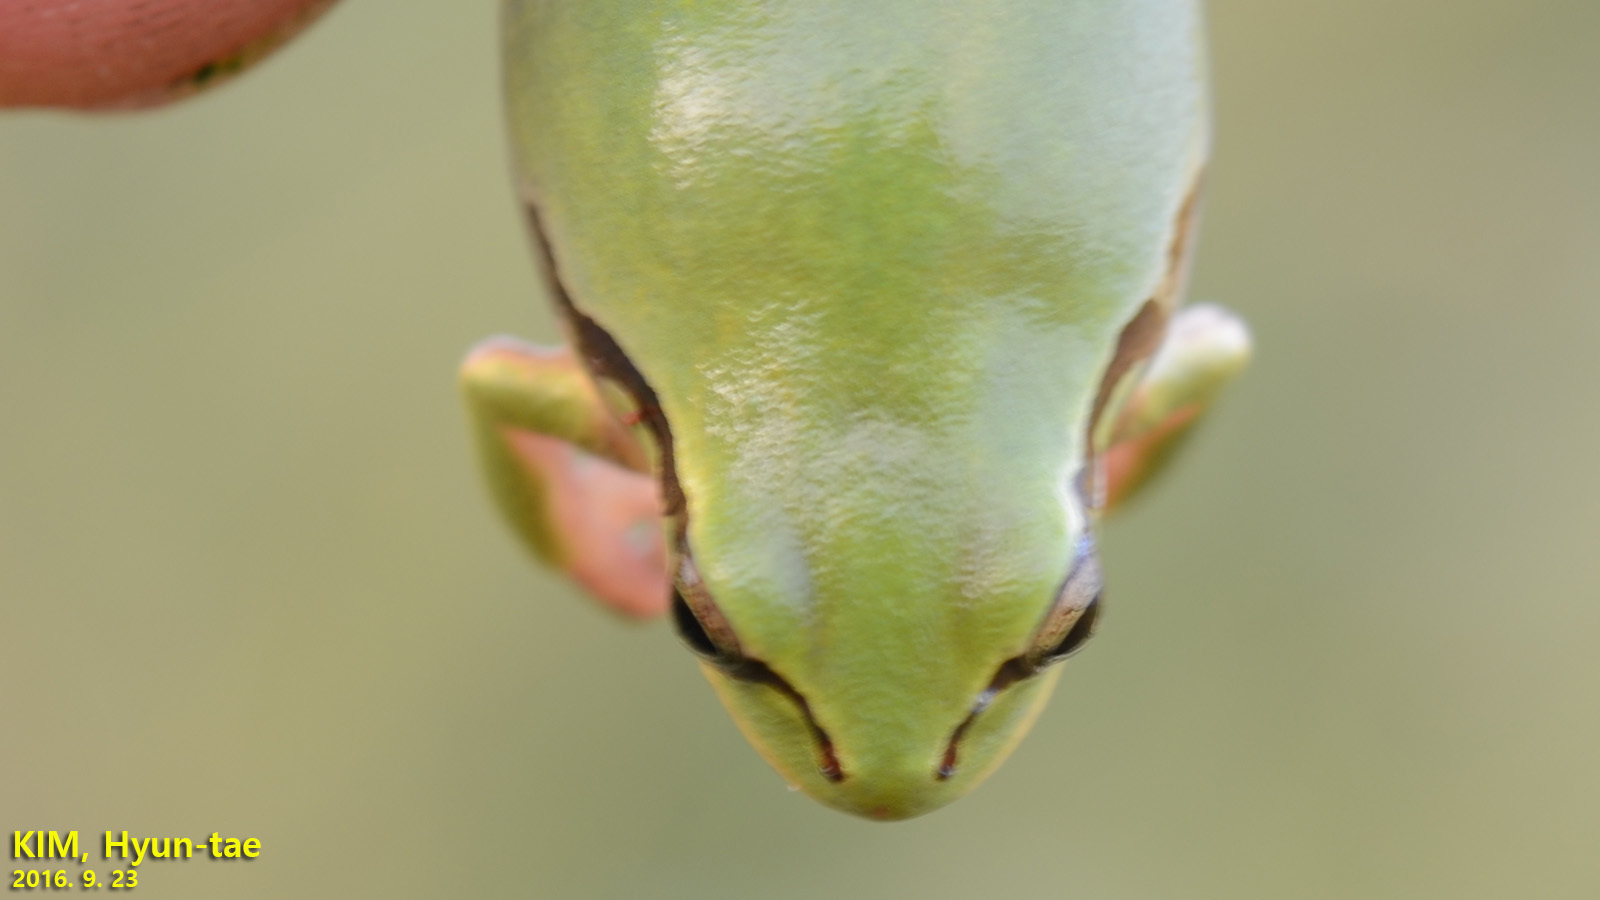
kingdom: Animalia
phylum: Chordata
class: Amphibia
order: Anura
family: Hylidae
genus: Dryophytes
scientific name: Dryophytes immaculatus
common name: North china treefrog
